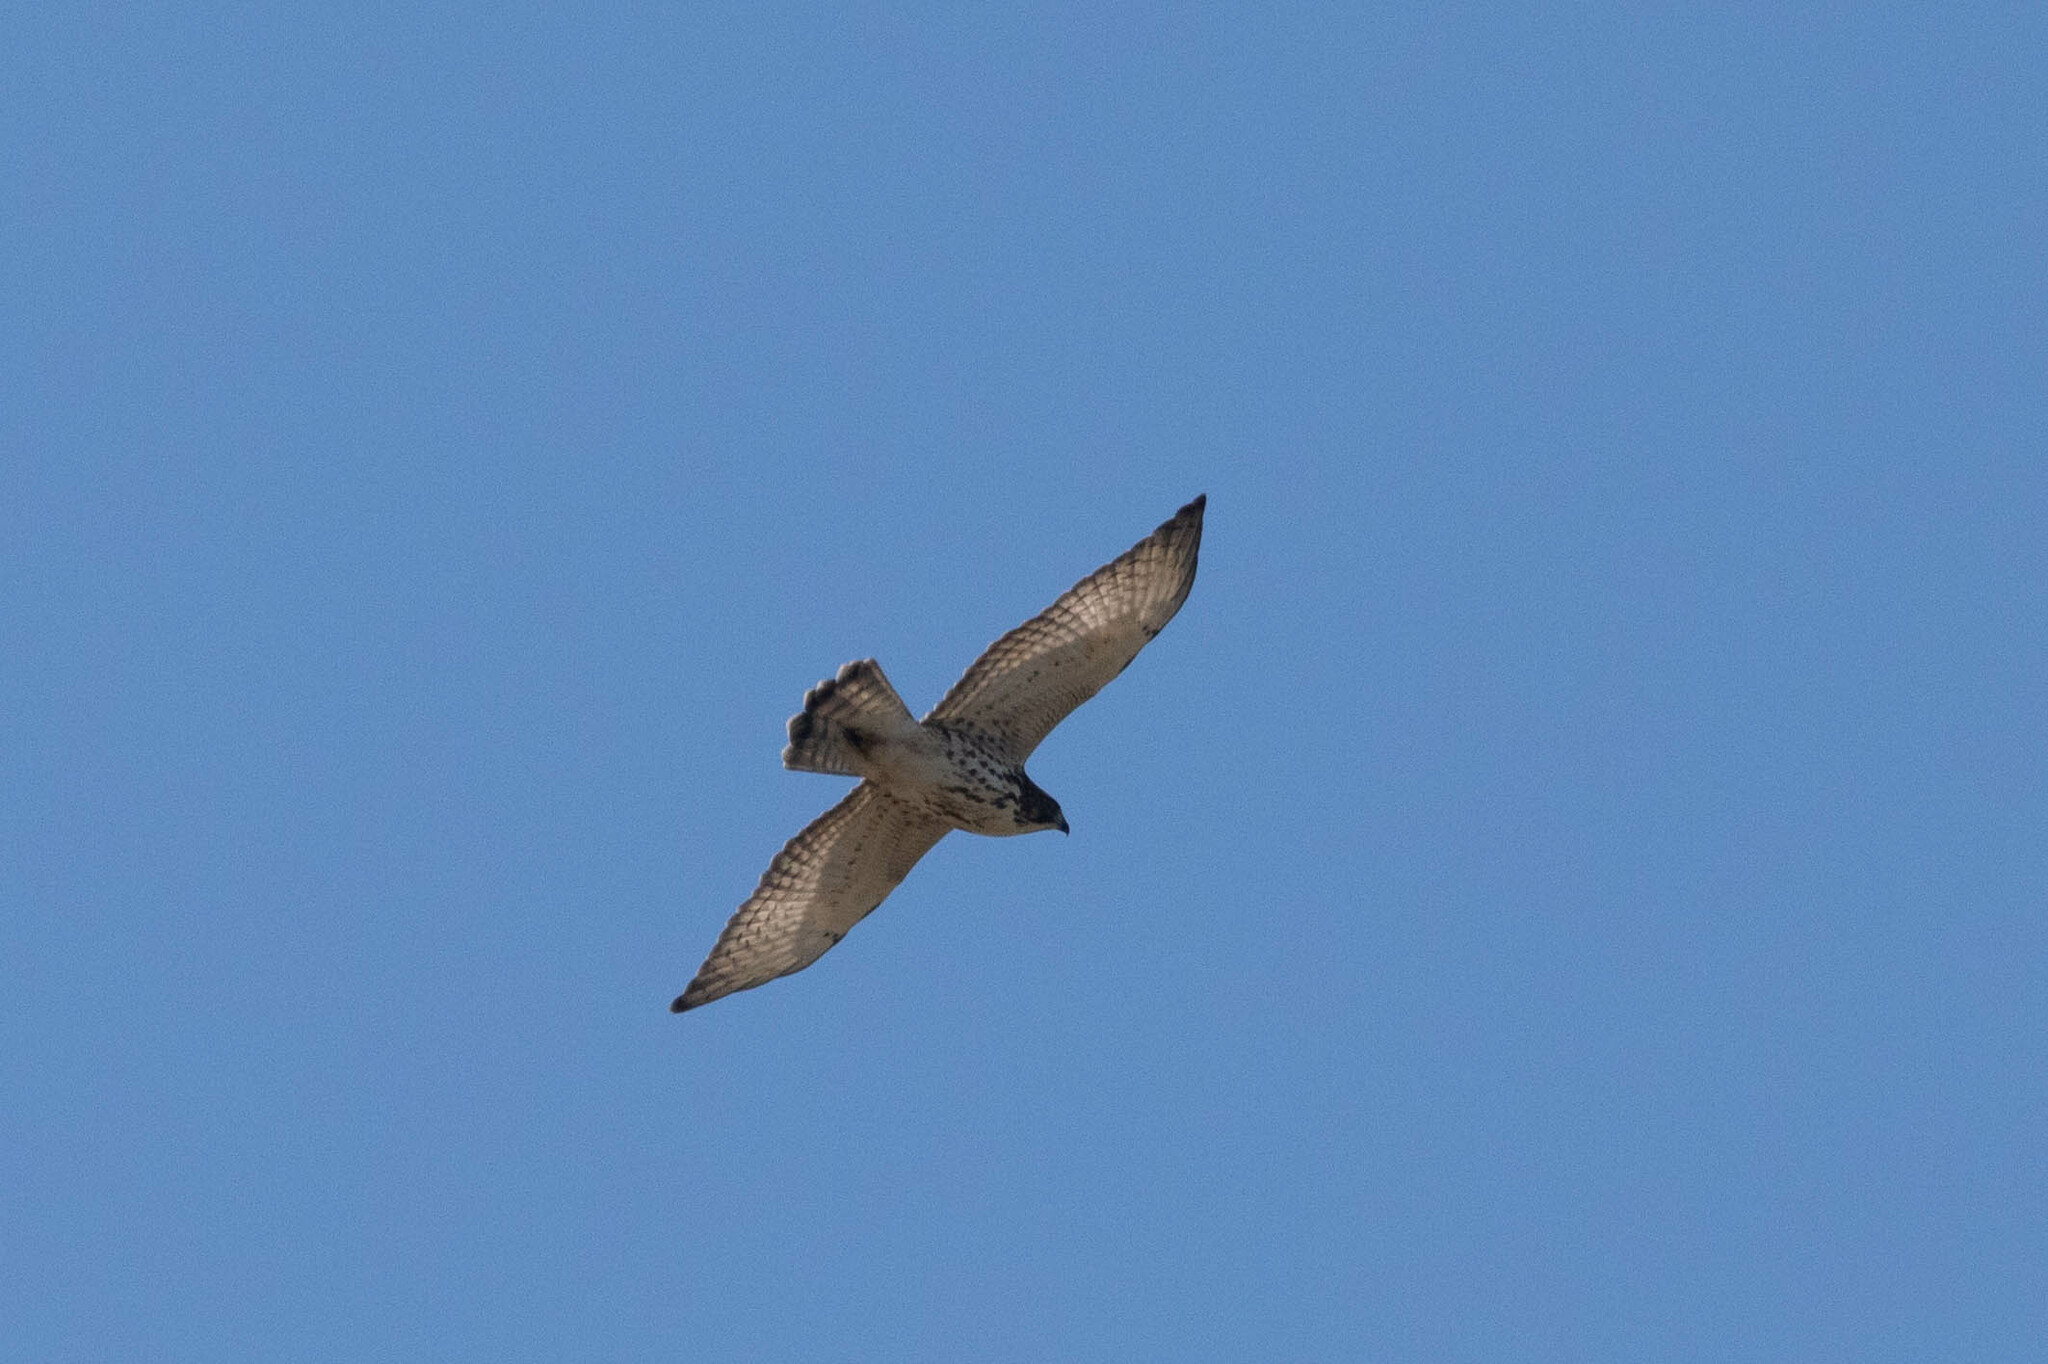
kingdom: Animalia
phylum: Chordata
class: Aves
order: Accipitriformes
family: Accipitridae
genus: Buteo
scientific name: Buteo platypterus
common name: Broad-winged hawk
